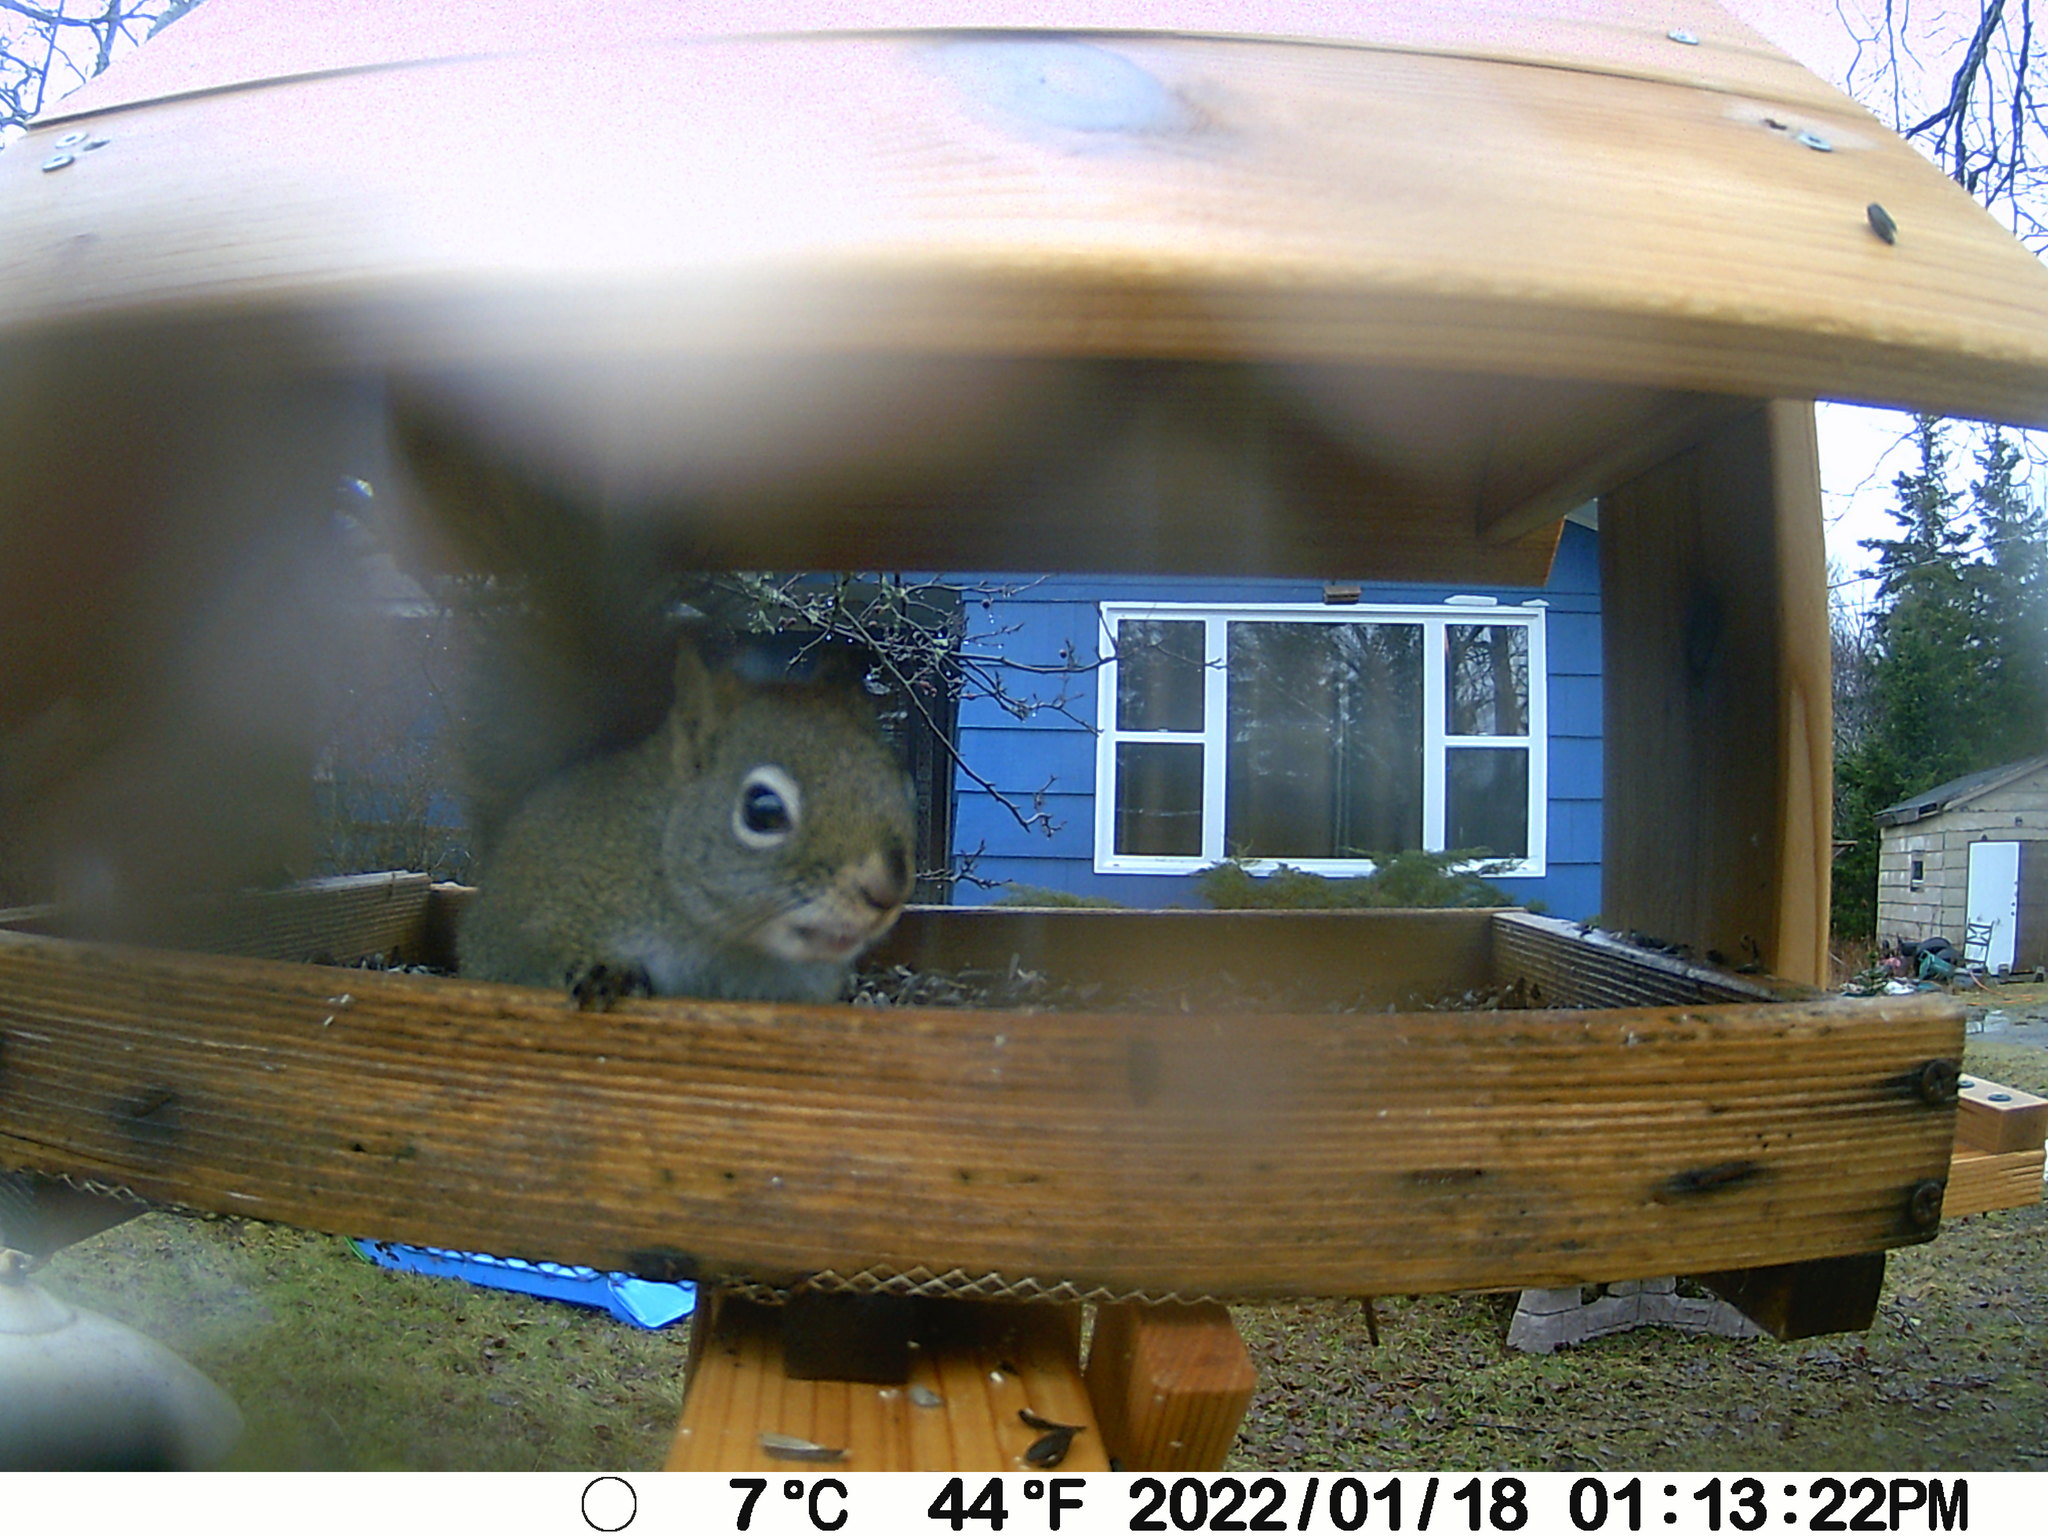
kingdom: Animalia
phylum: Chordata
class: Mammalia
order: Rodentia
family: Sciuridae
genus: Tamiasciurus
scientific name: Tamiasciurus hudsonicus
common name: Red squirrel
